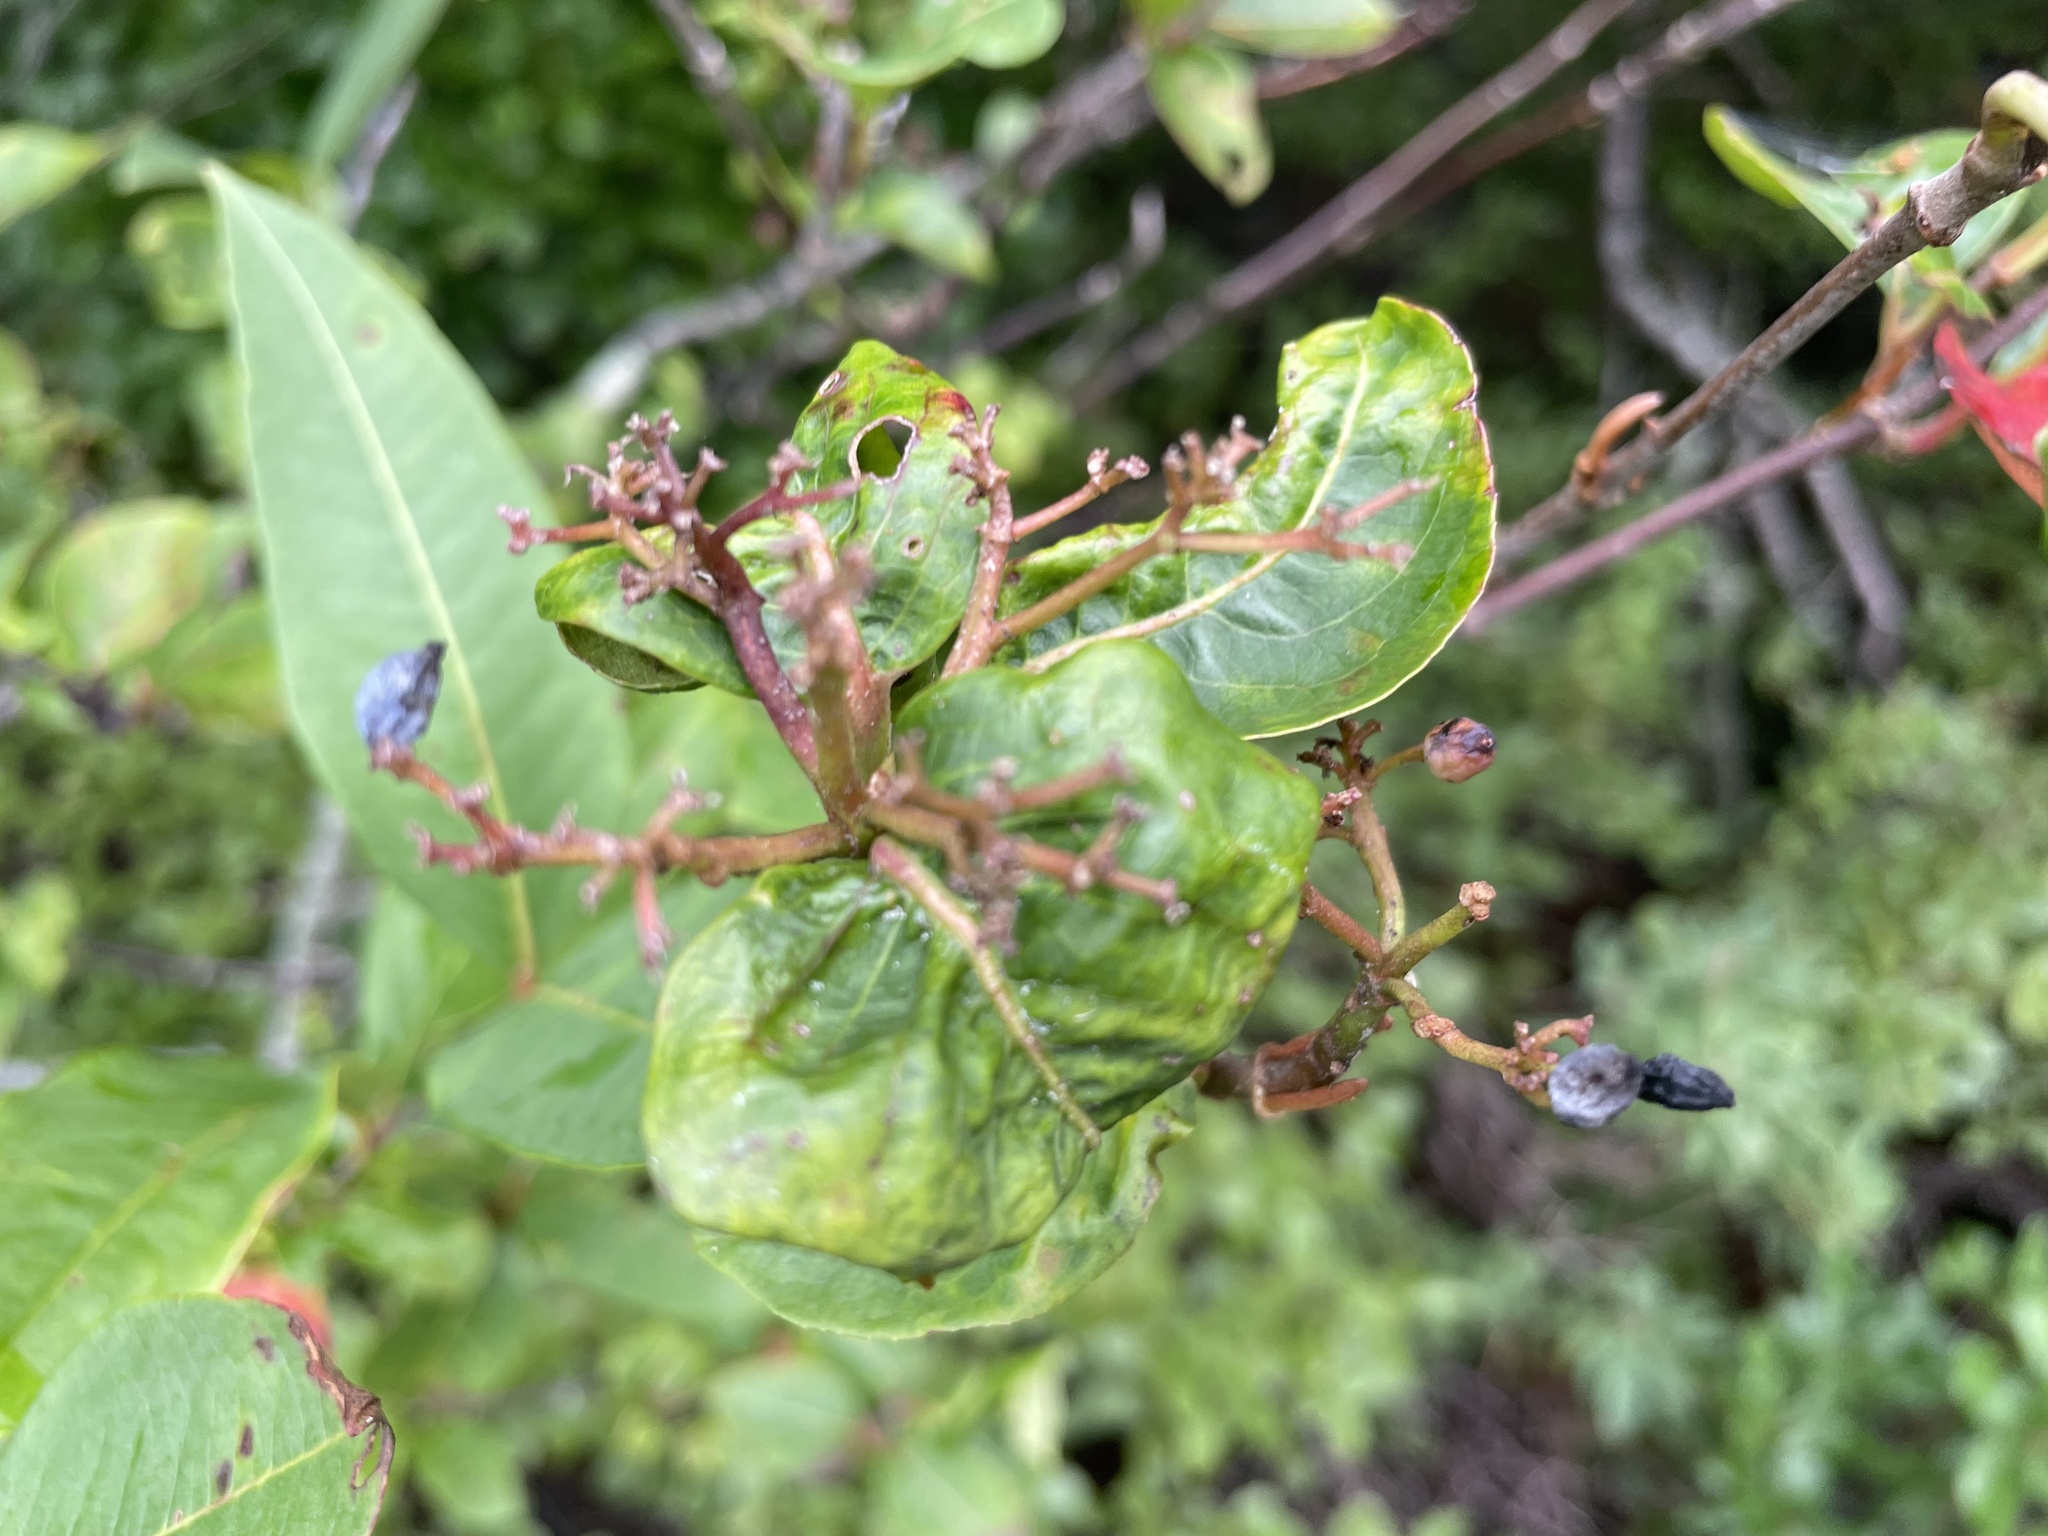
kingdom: Plantae
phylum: Tracheophyta
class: Magnoliopsida
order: Dipsacales
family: Viburnaceae
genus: Viburnum
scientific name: Viburnum cassinoides
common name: Swamp haw
